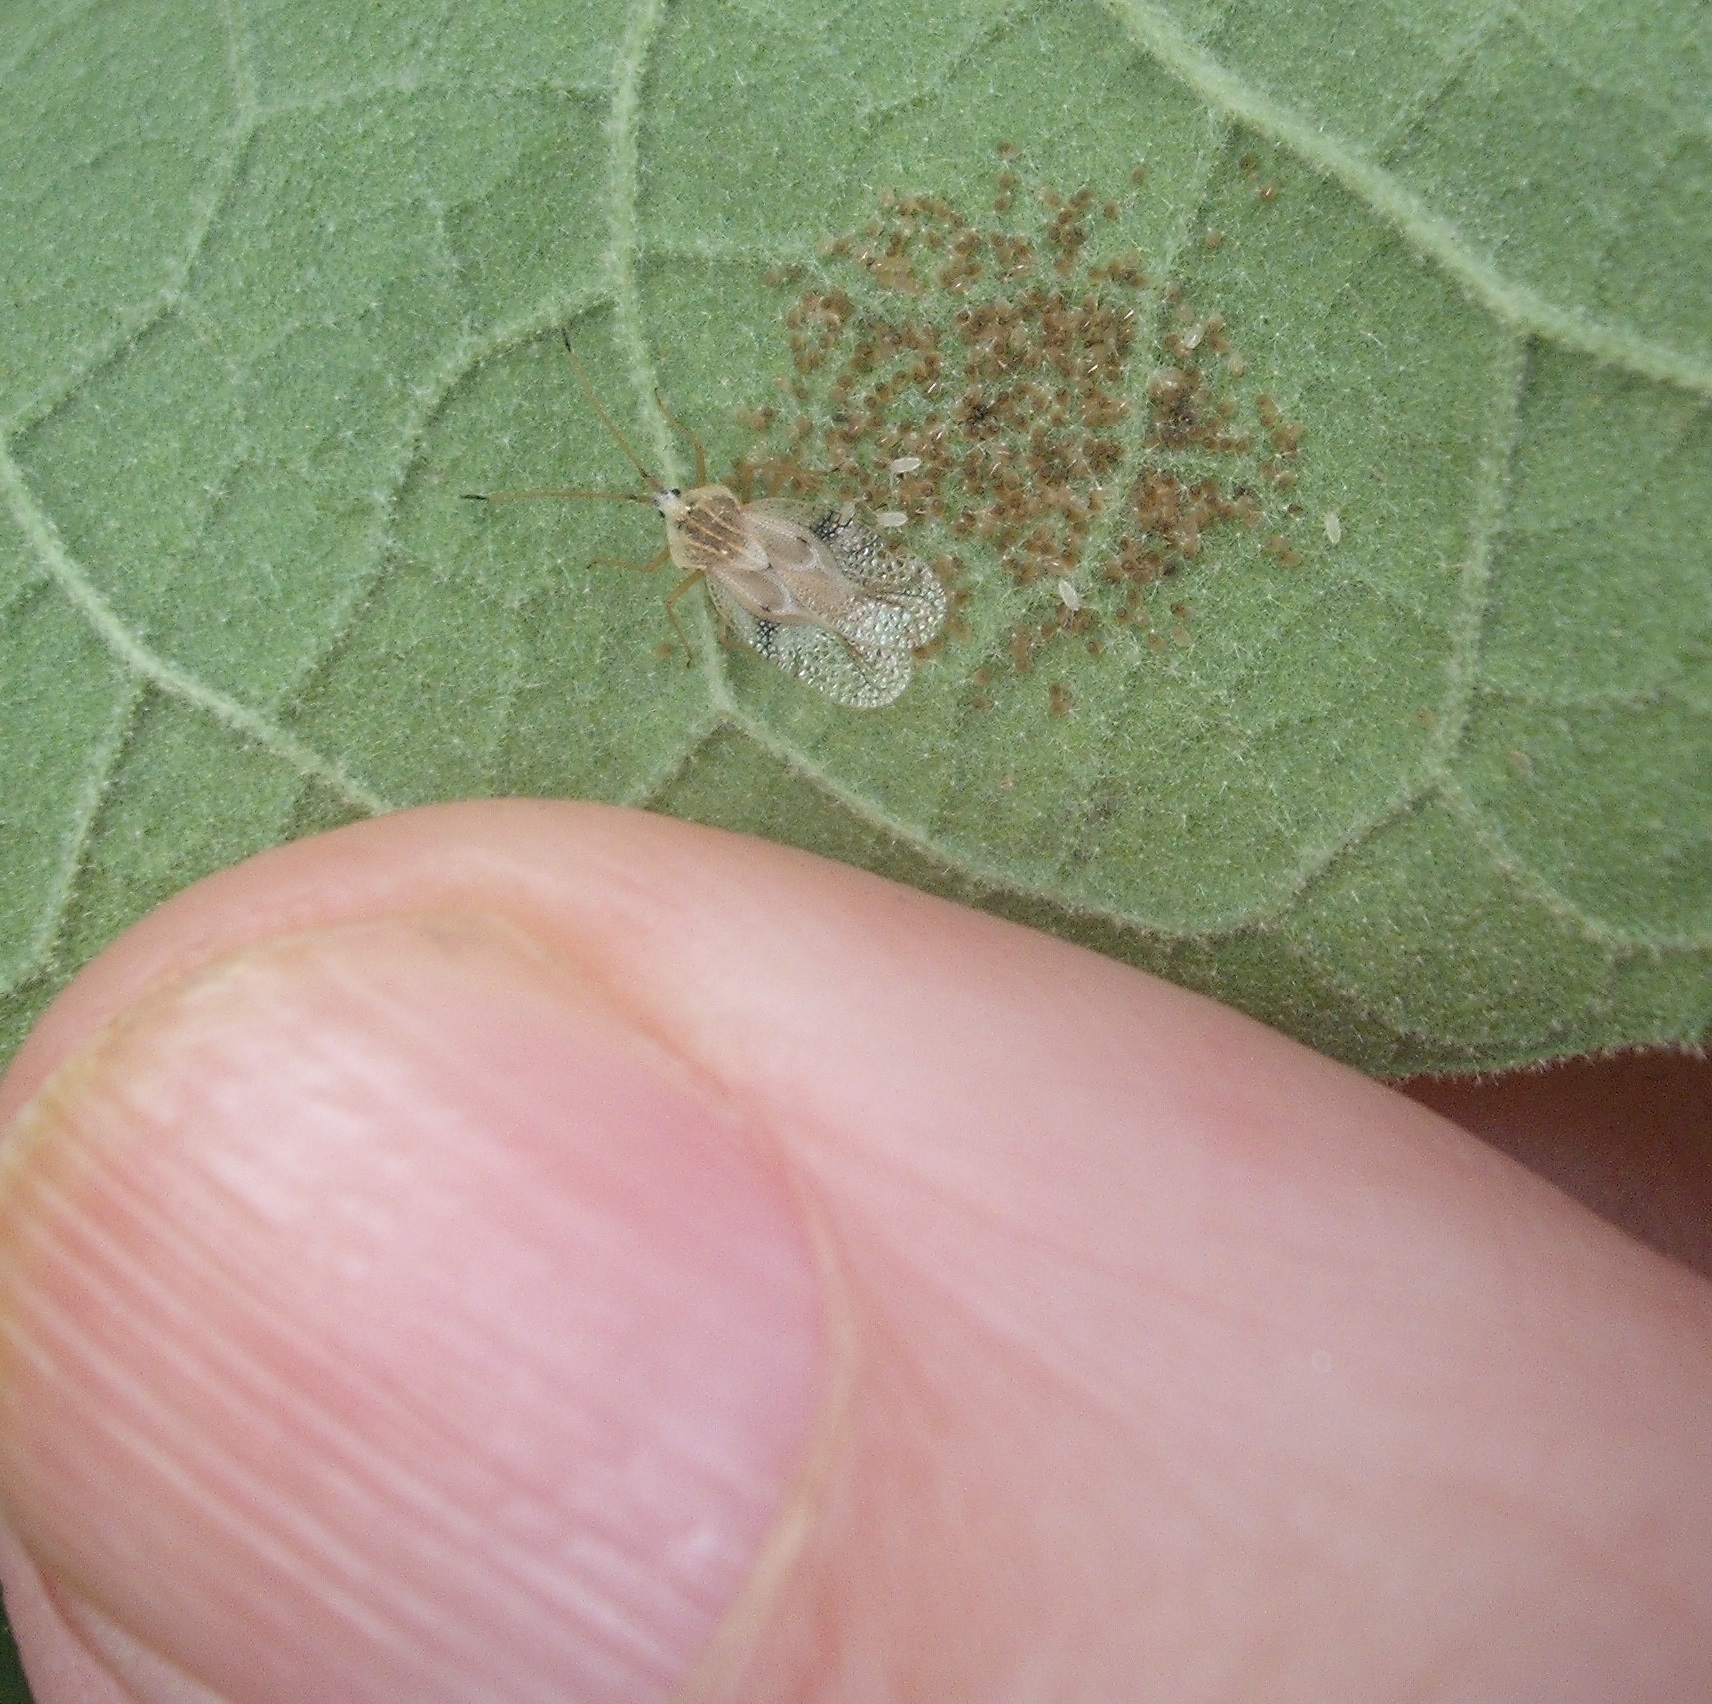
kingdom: Animalia
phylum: Arthropoda
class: Insecta
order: Hemiptera
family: Tingidae
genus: Gargaphia
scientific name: Gargaphia decoris
